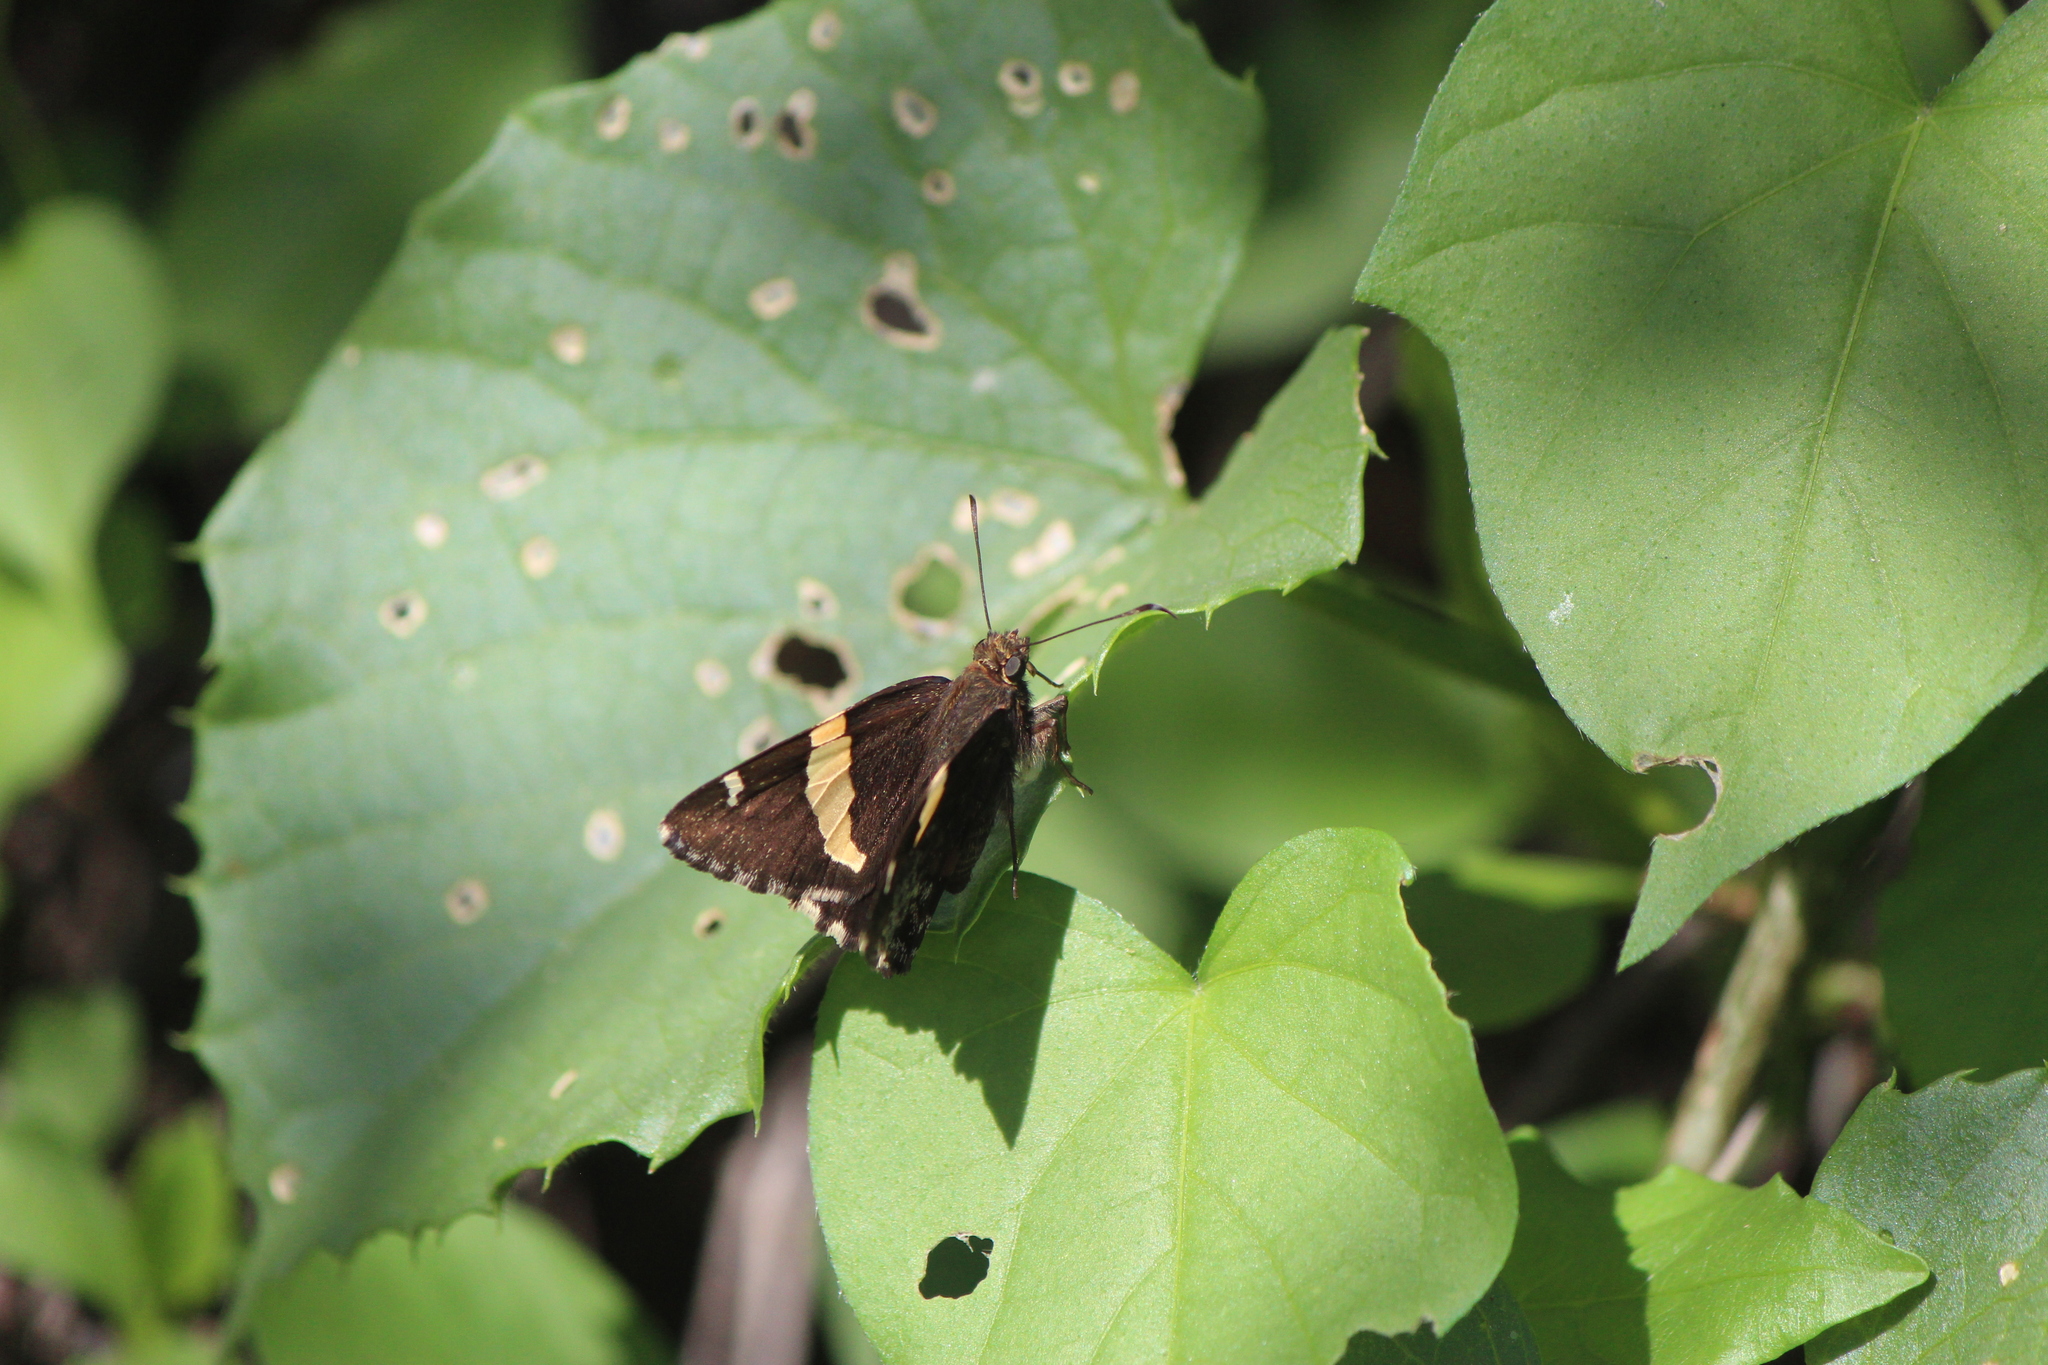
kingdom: Animalia
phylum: Arthropoda
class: Arachnida
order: Scorpiones
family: Bothriuridae
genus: Telegonus
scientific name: Telegonus cellus
